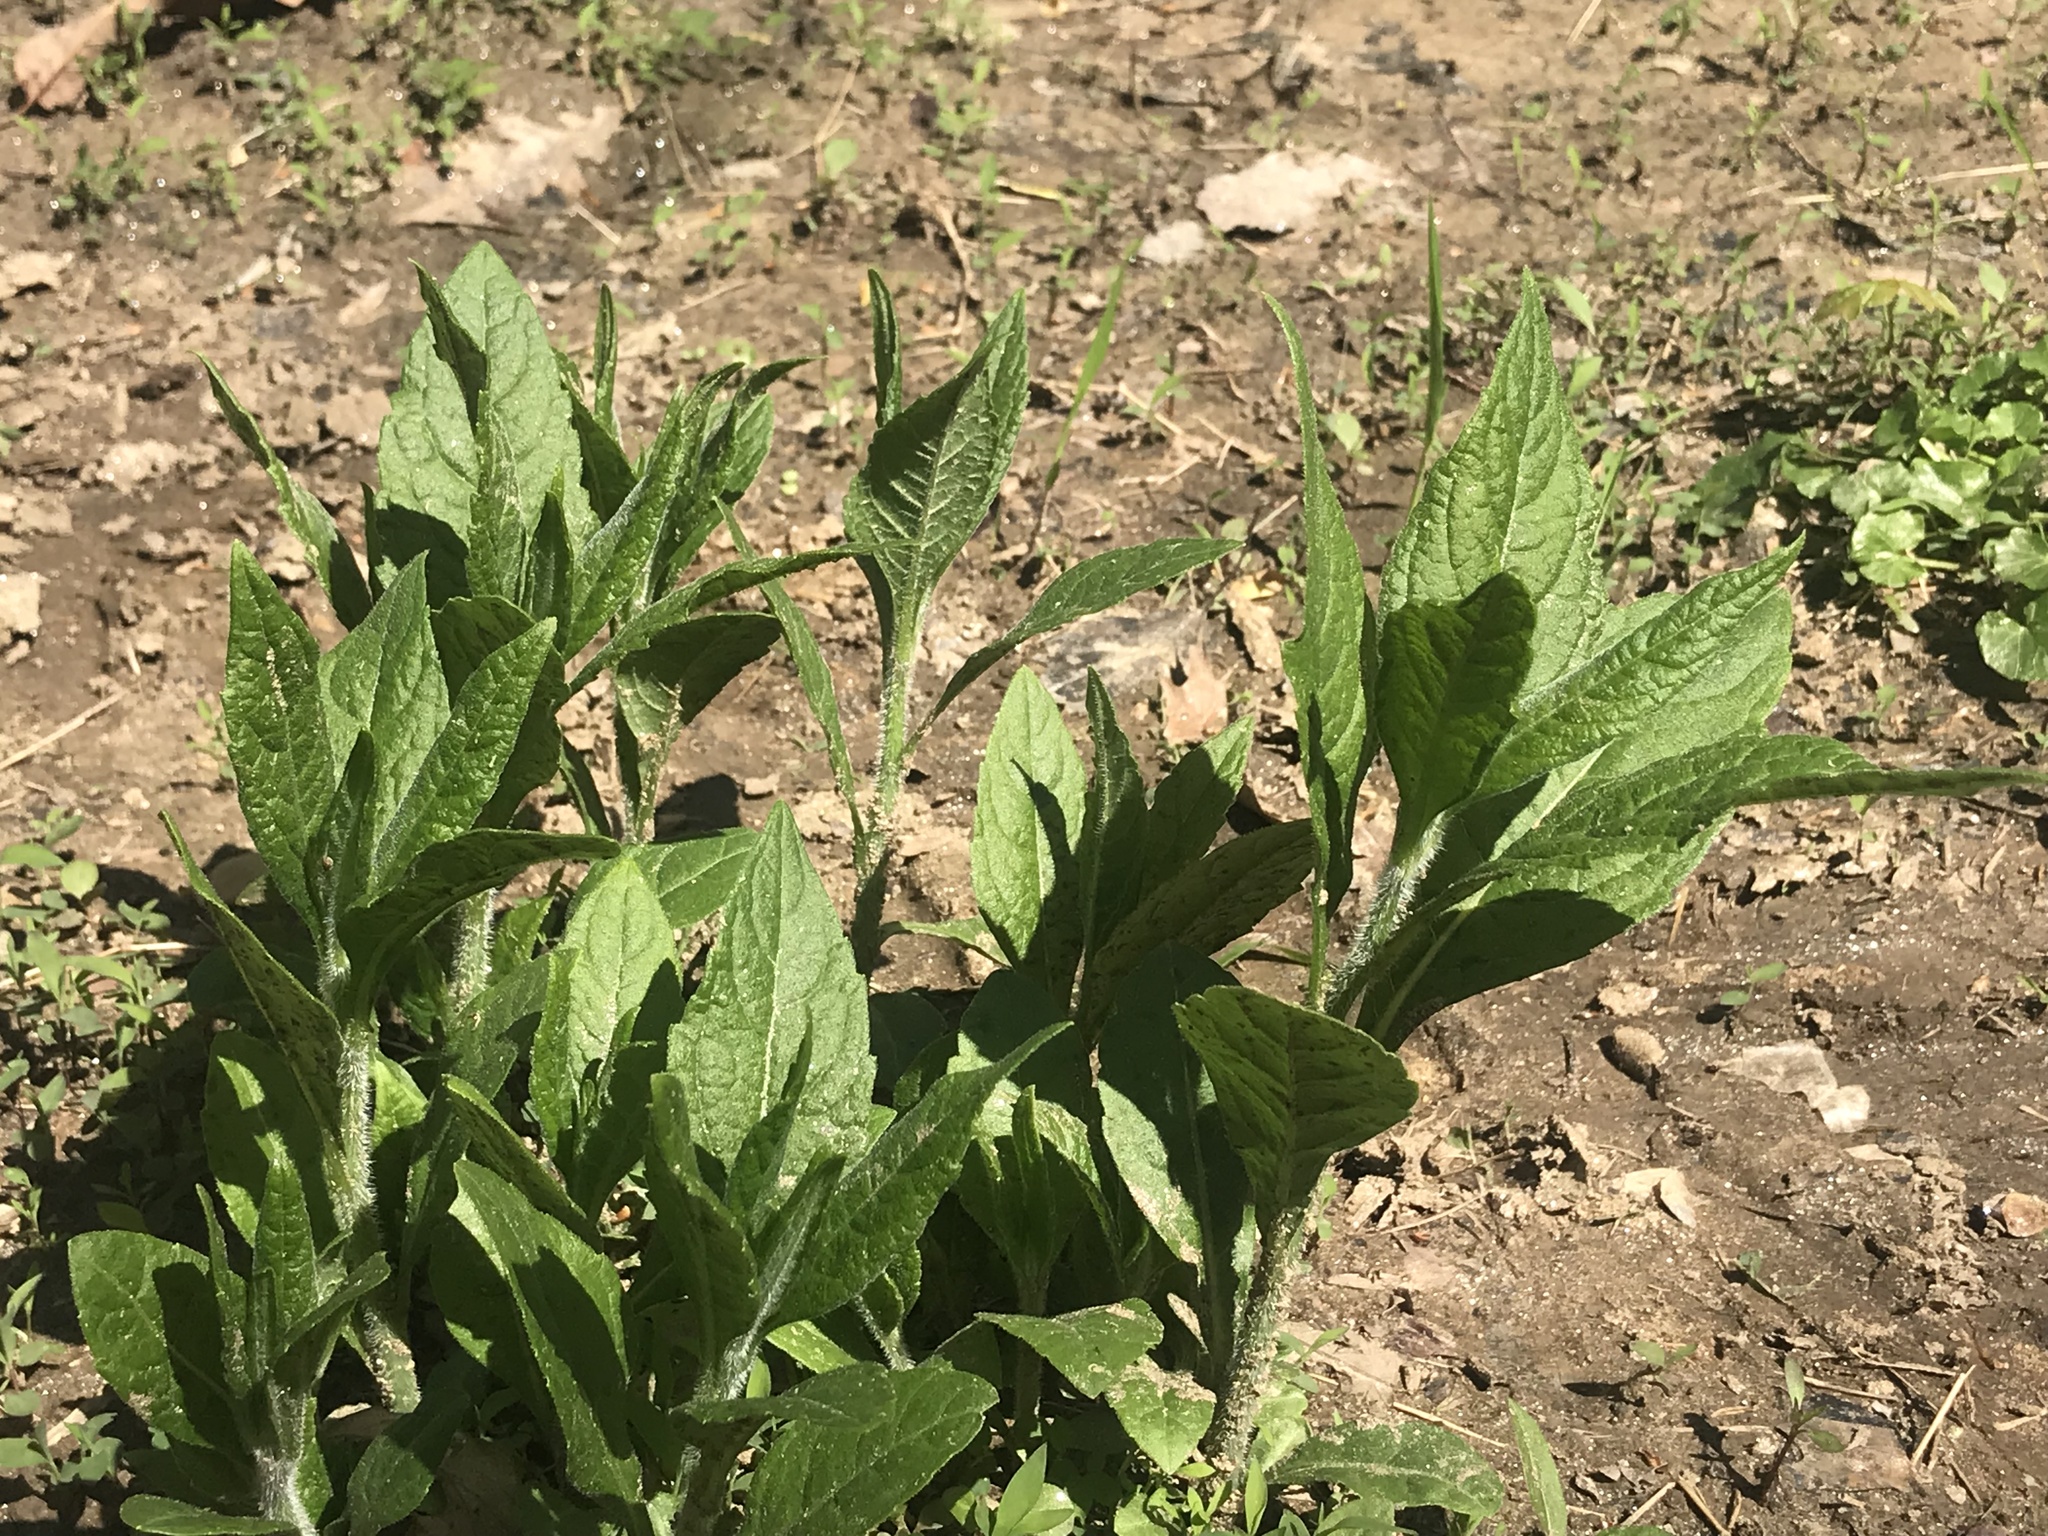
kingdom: Plantae
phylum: Tracheophyta
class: Magnoliopsida
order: Asterales
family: Asteraceae
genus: Verbesina
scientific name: Verbesina alternifolia
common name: Wingstem
